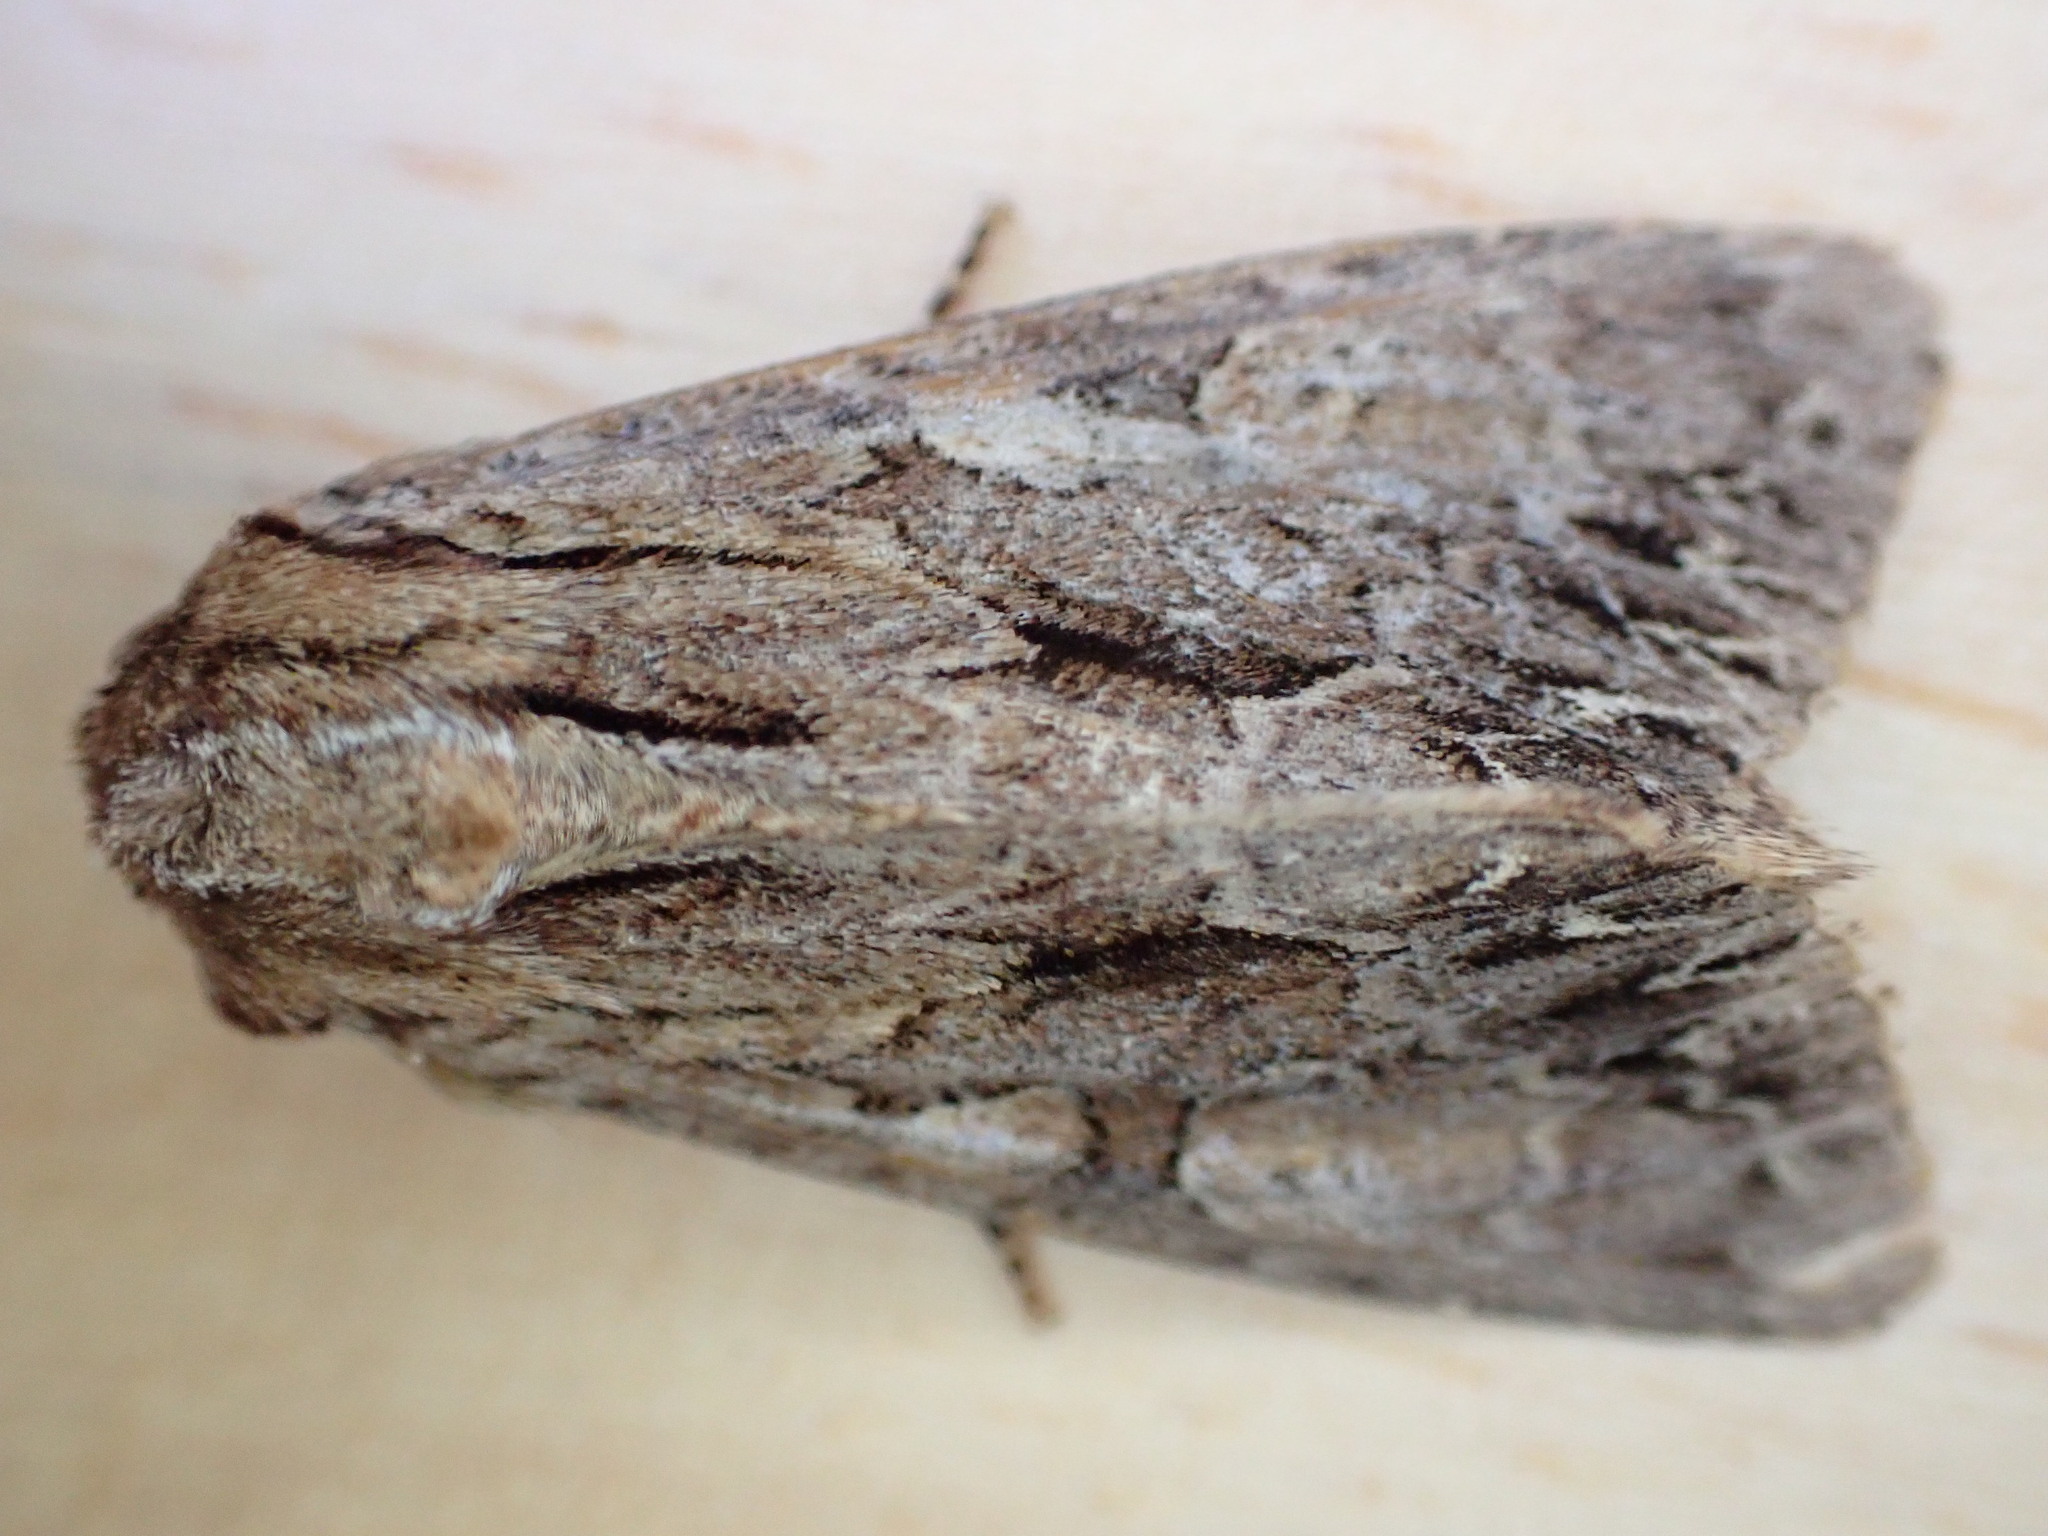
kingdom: Animalia
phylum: Arthropoda
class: Insecta
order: Lepidoptera
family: Noctuidae
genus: Apamea
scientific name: Apamea monoglypha
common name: Dark arches
